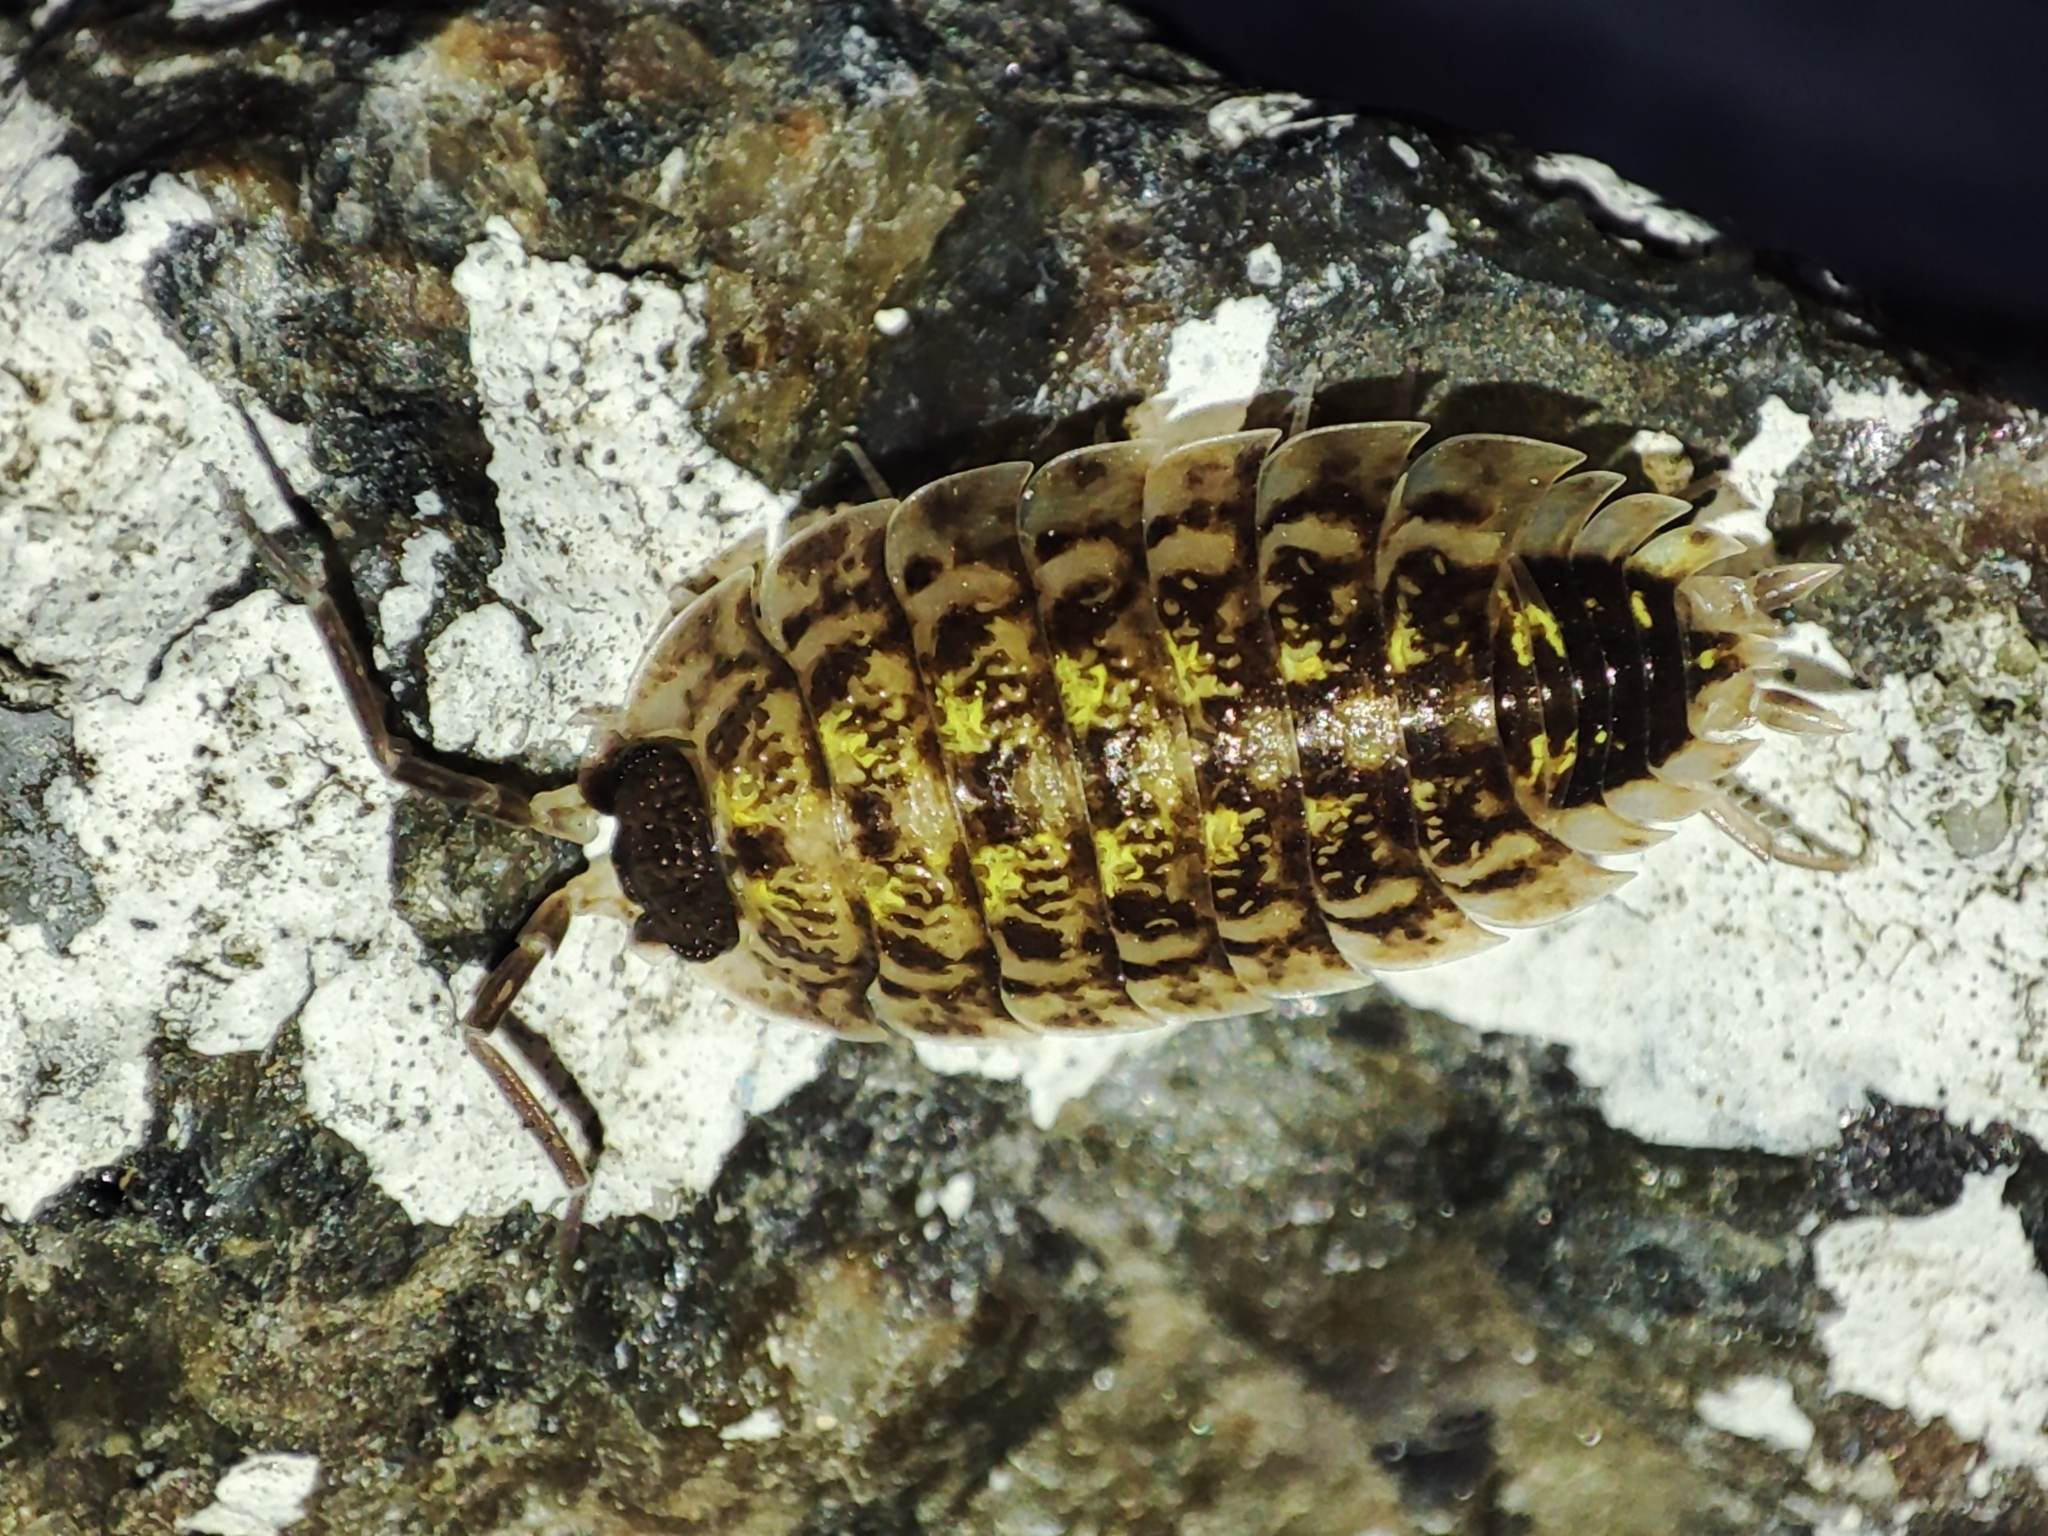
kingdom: Animalia
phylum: Arthropoda
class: Malacostraca
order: Isopoda
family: Porcellionidae
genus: Porcellio
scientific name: Porcellio spinicornis
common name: Painted woodlouse
